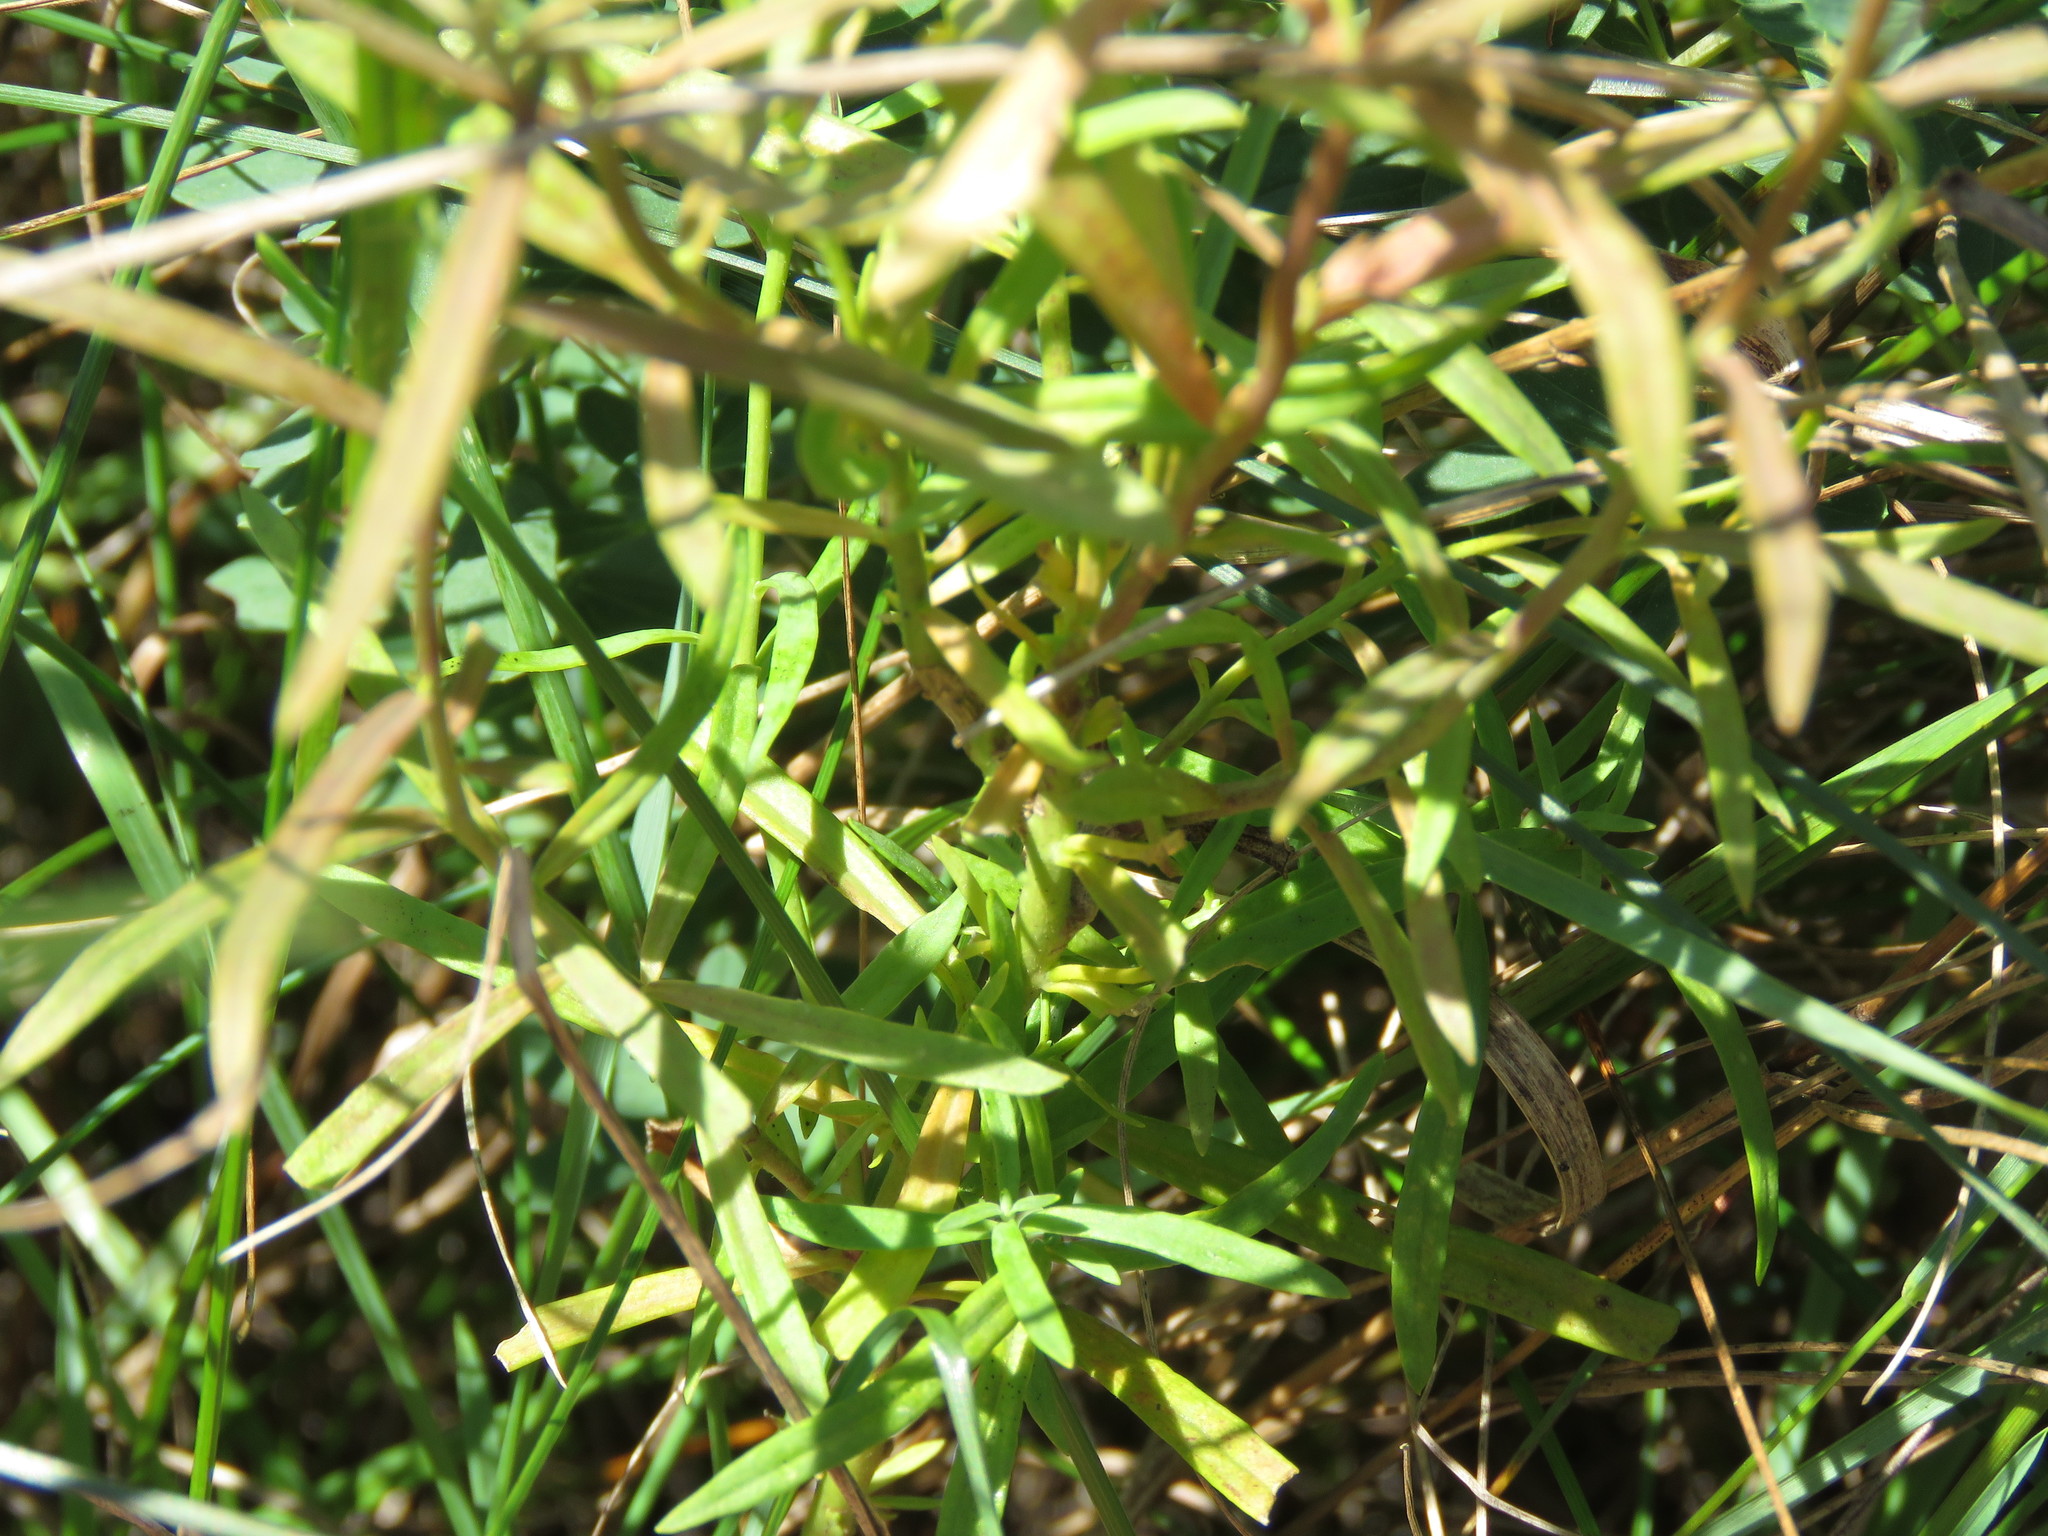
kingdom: Plantae
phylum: Tracheophyta
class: Magnoliopsida
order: Lamiales
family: Plantaginaceae
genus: Linaria
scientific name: Linaria vulgaris
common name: Butter and eggs
